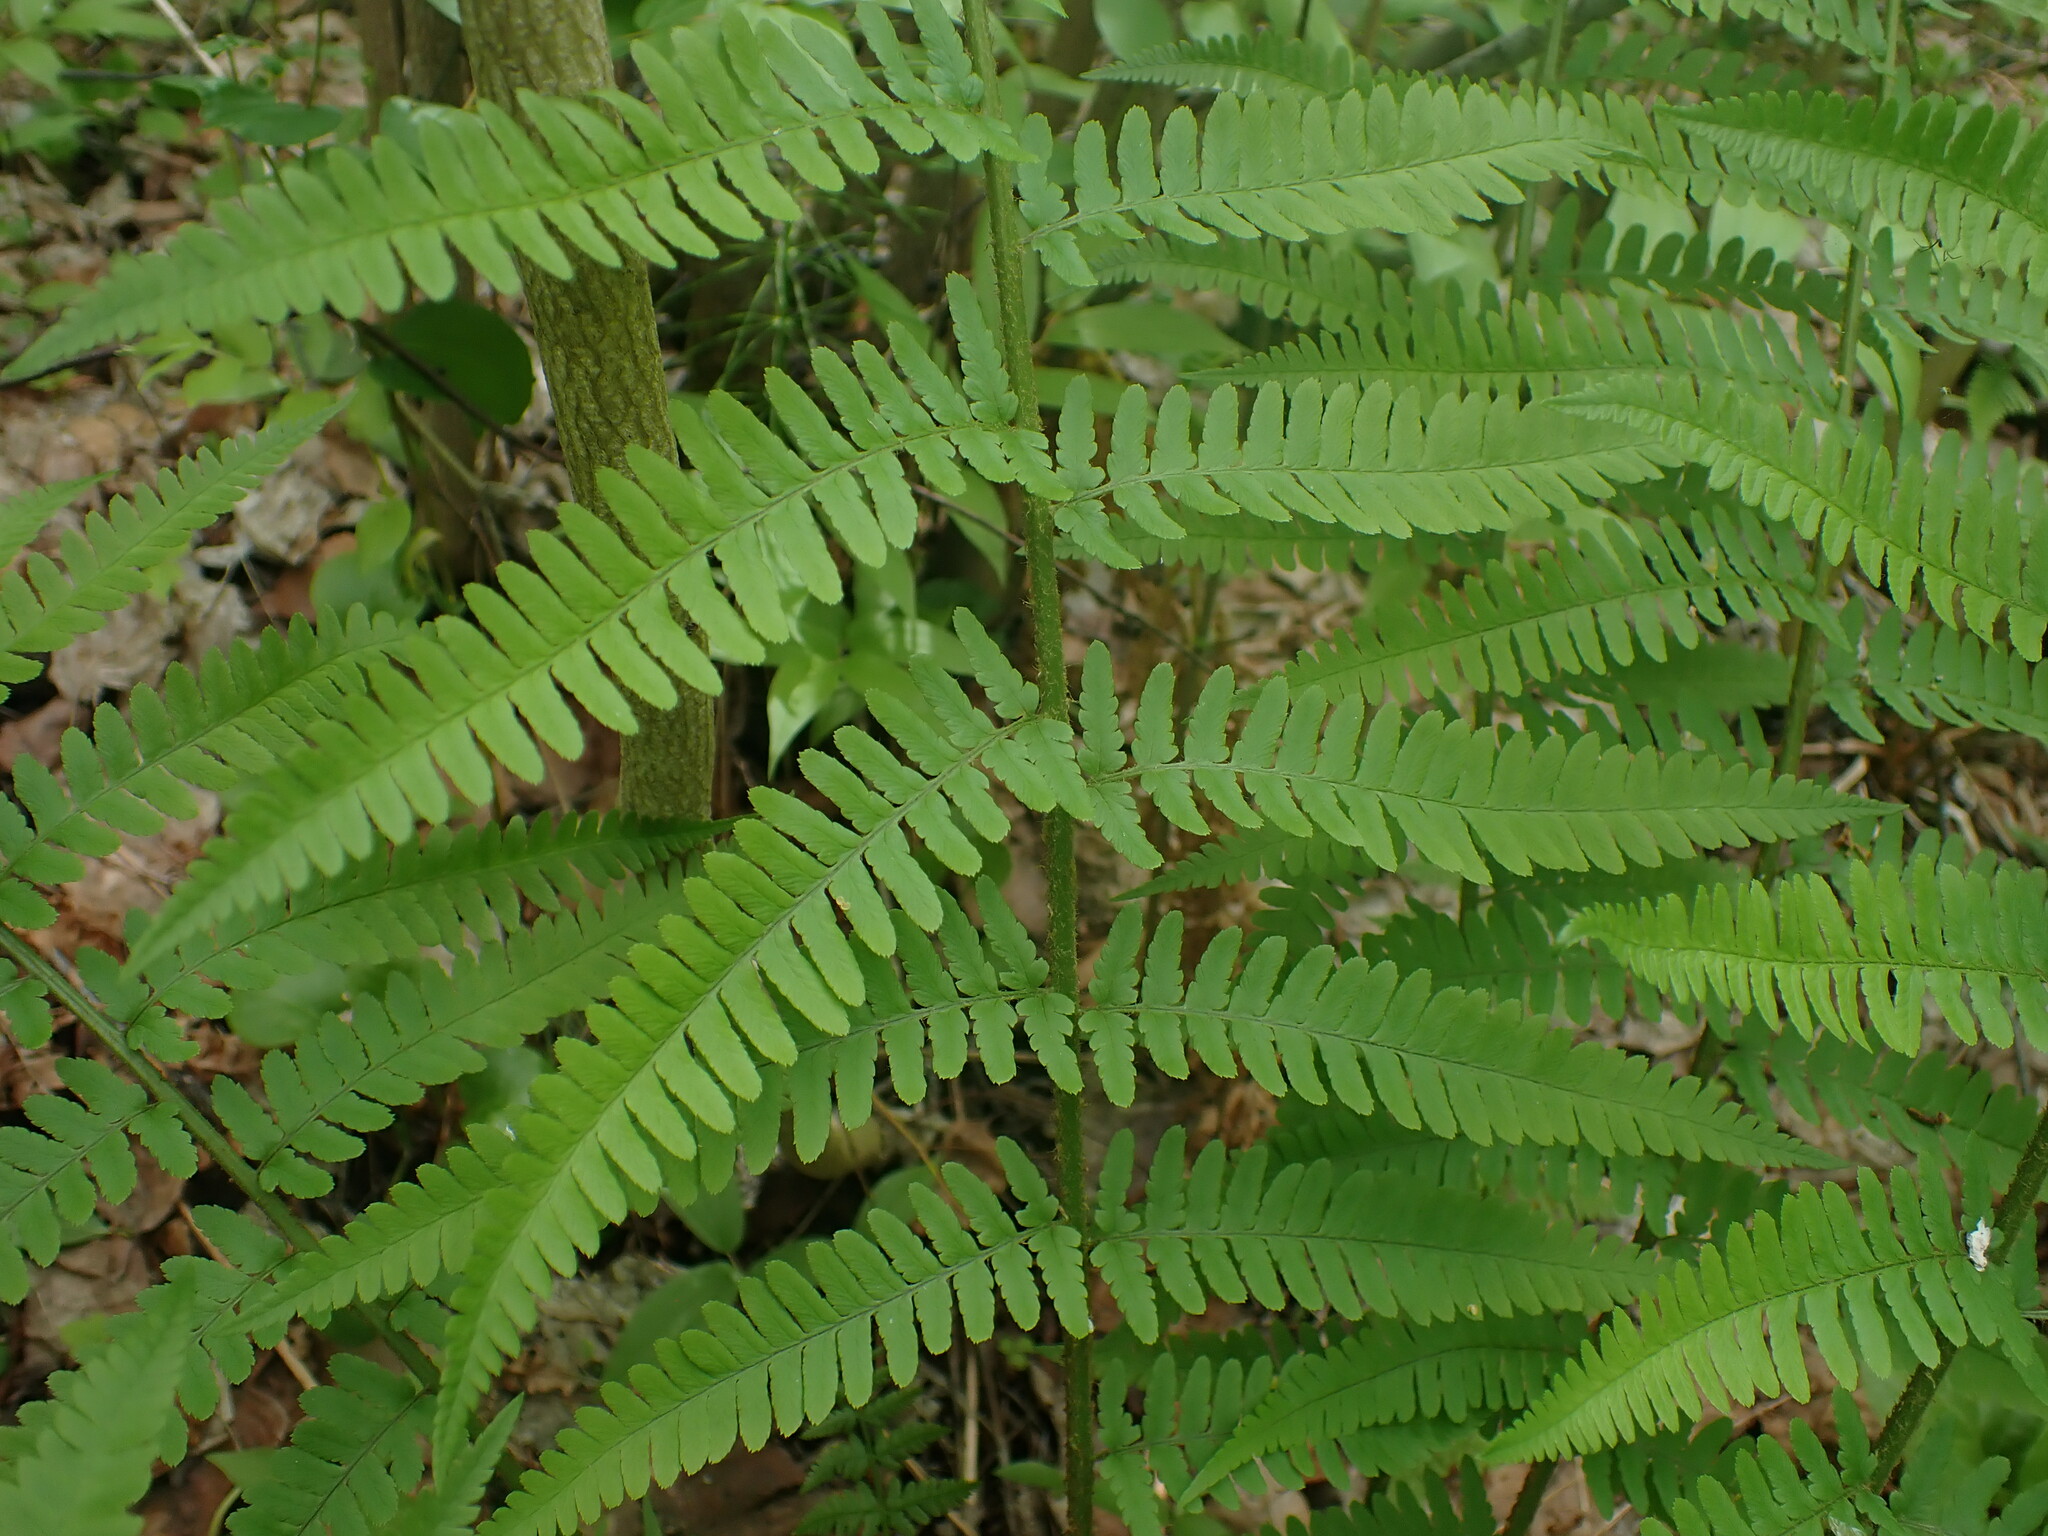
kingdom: Plantae
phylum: Tracheophyta
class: Polypodiopsida
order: Polypodiales
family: Dryopteridaceae
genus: Dryopteris
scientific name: Dryopteris filix-mas
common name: Male fern
